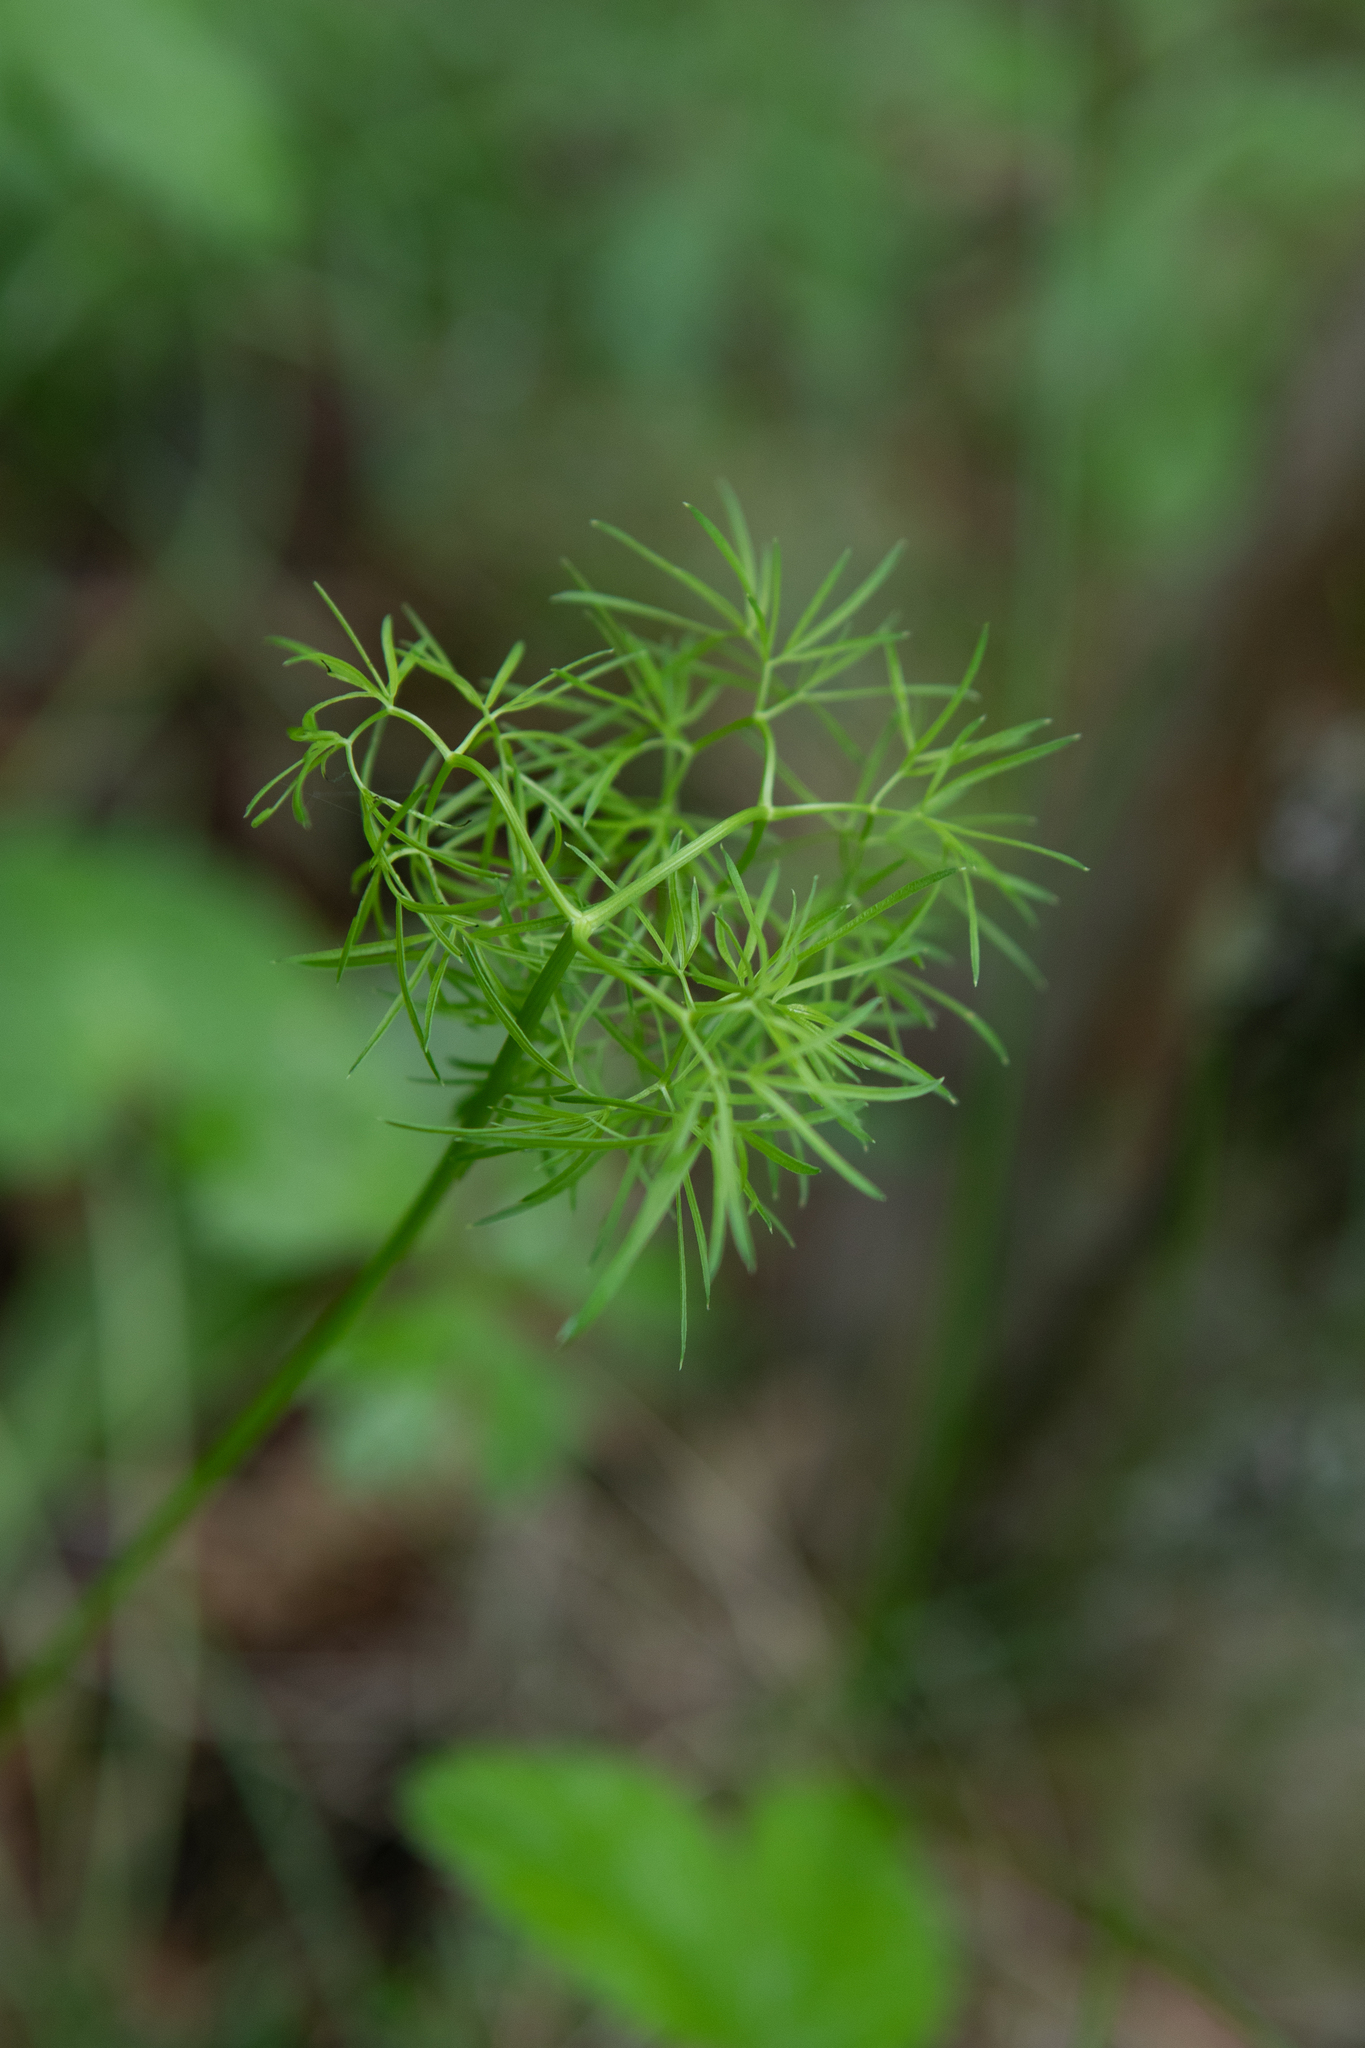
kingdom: Plantae
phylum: Tracheophyta
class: Magnoliopsida
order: Apiales
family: Apiaceae
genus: Cenolophium
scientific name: Cenolophium fischeri
